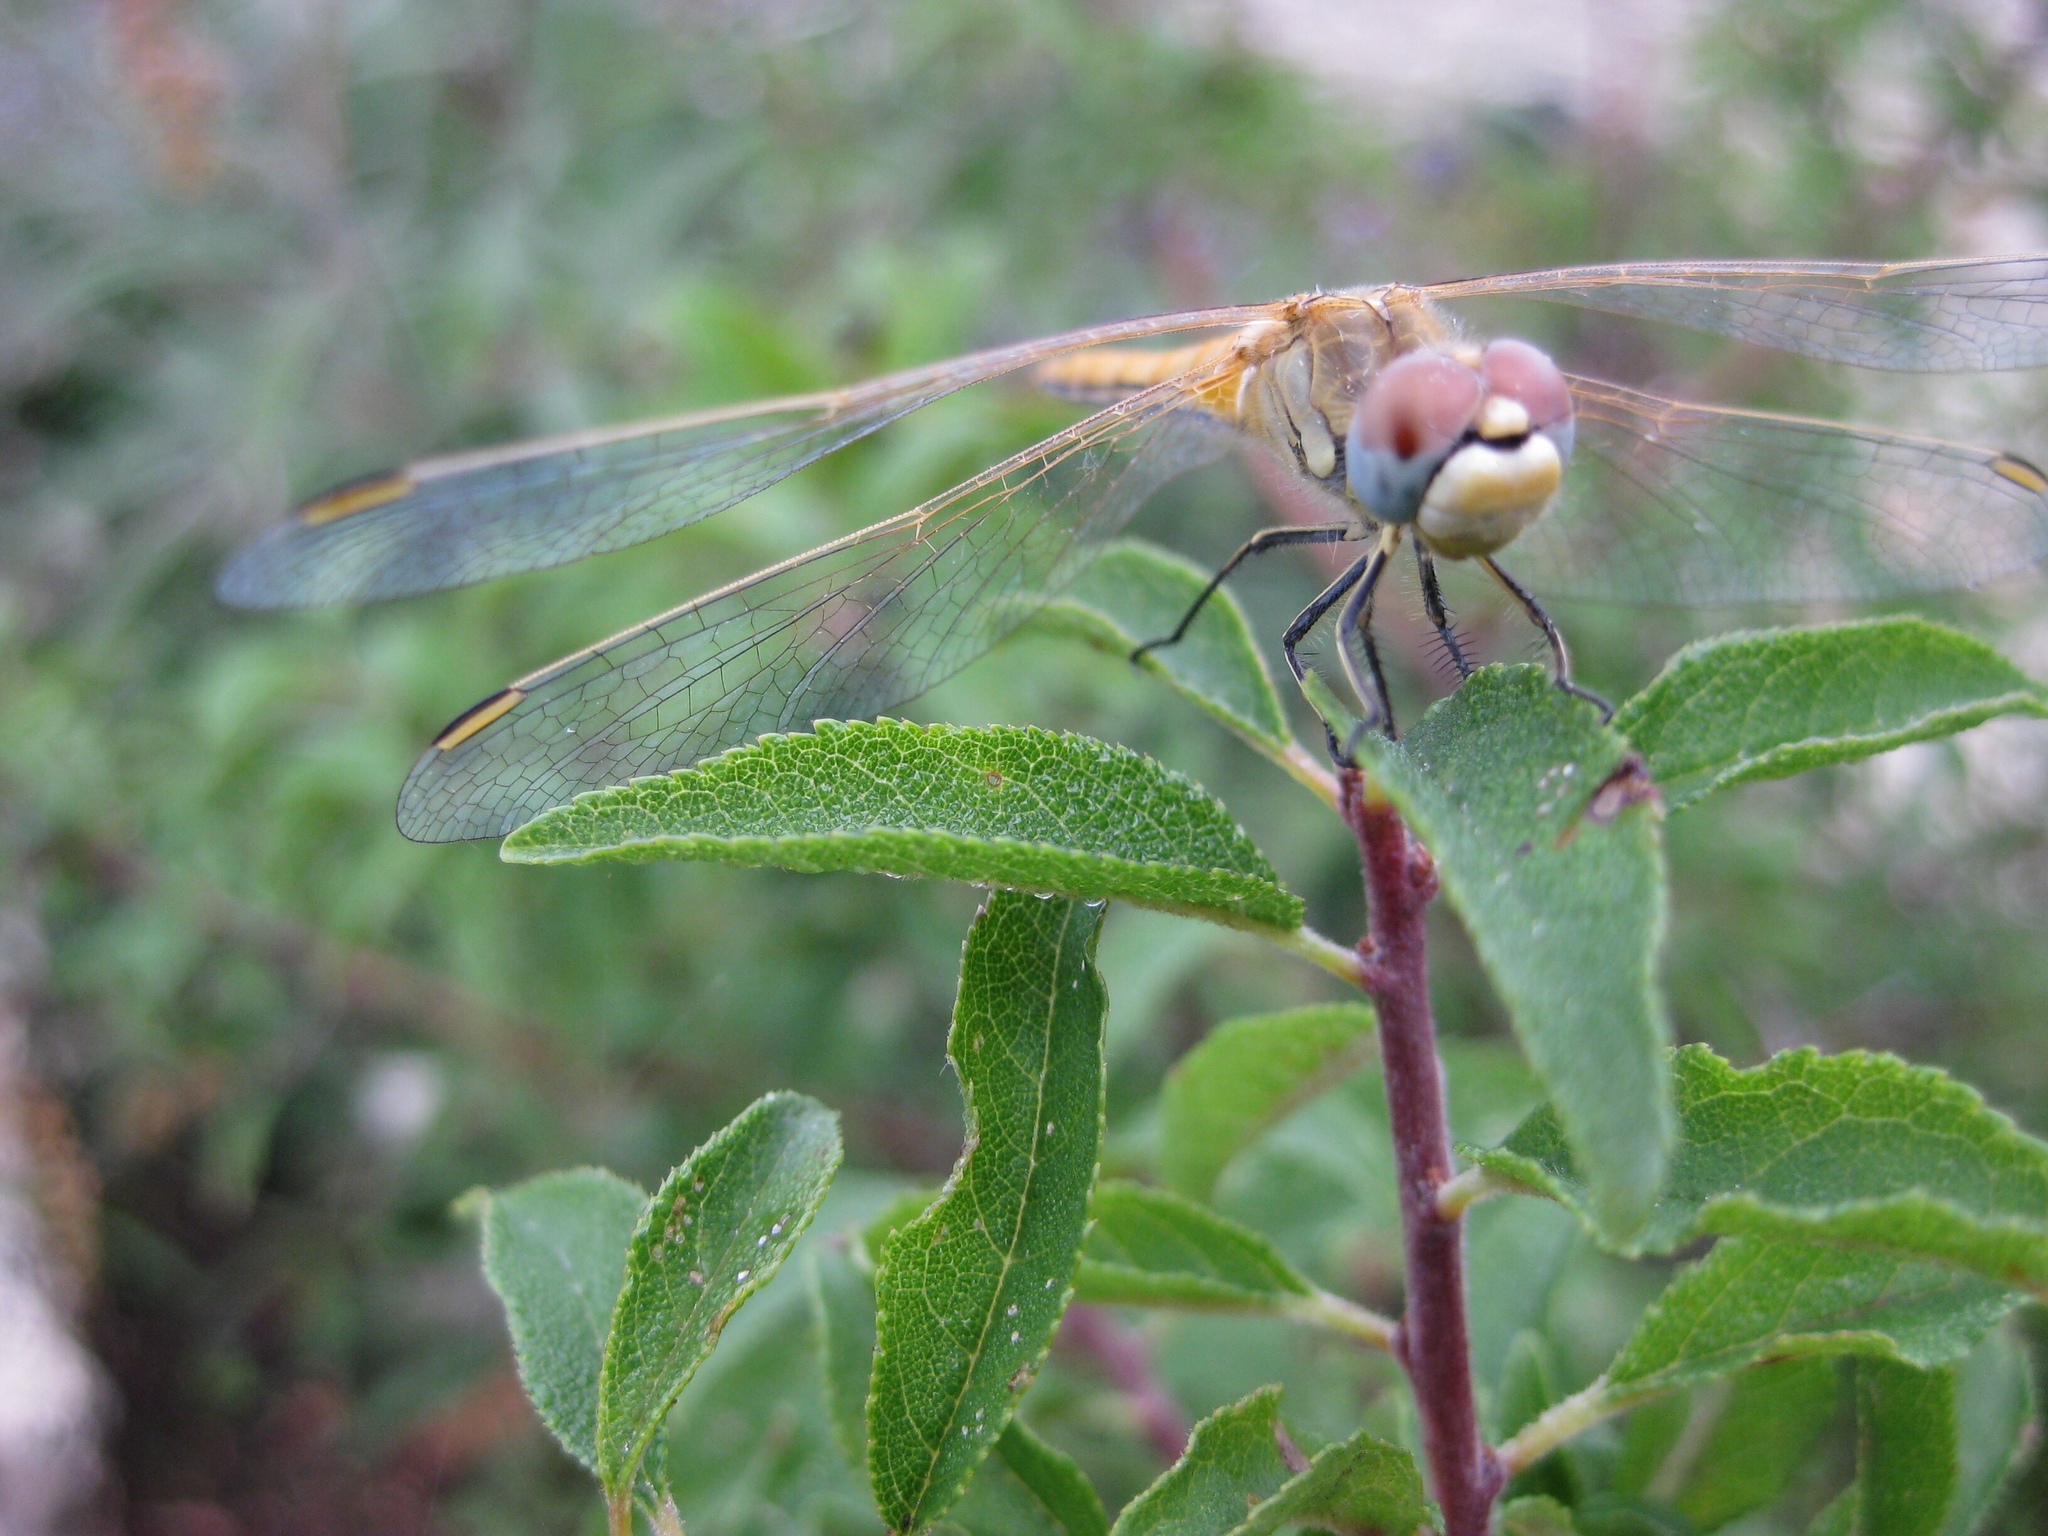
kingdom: Animalia
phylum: Arthropoda
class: Insecta
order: Odonata
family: Libellulidae
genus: Sympetrum
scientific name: Sympetrum fonscolombii
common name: Red-veined darter
